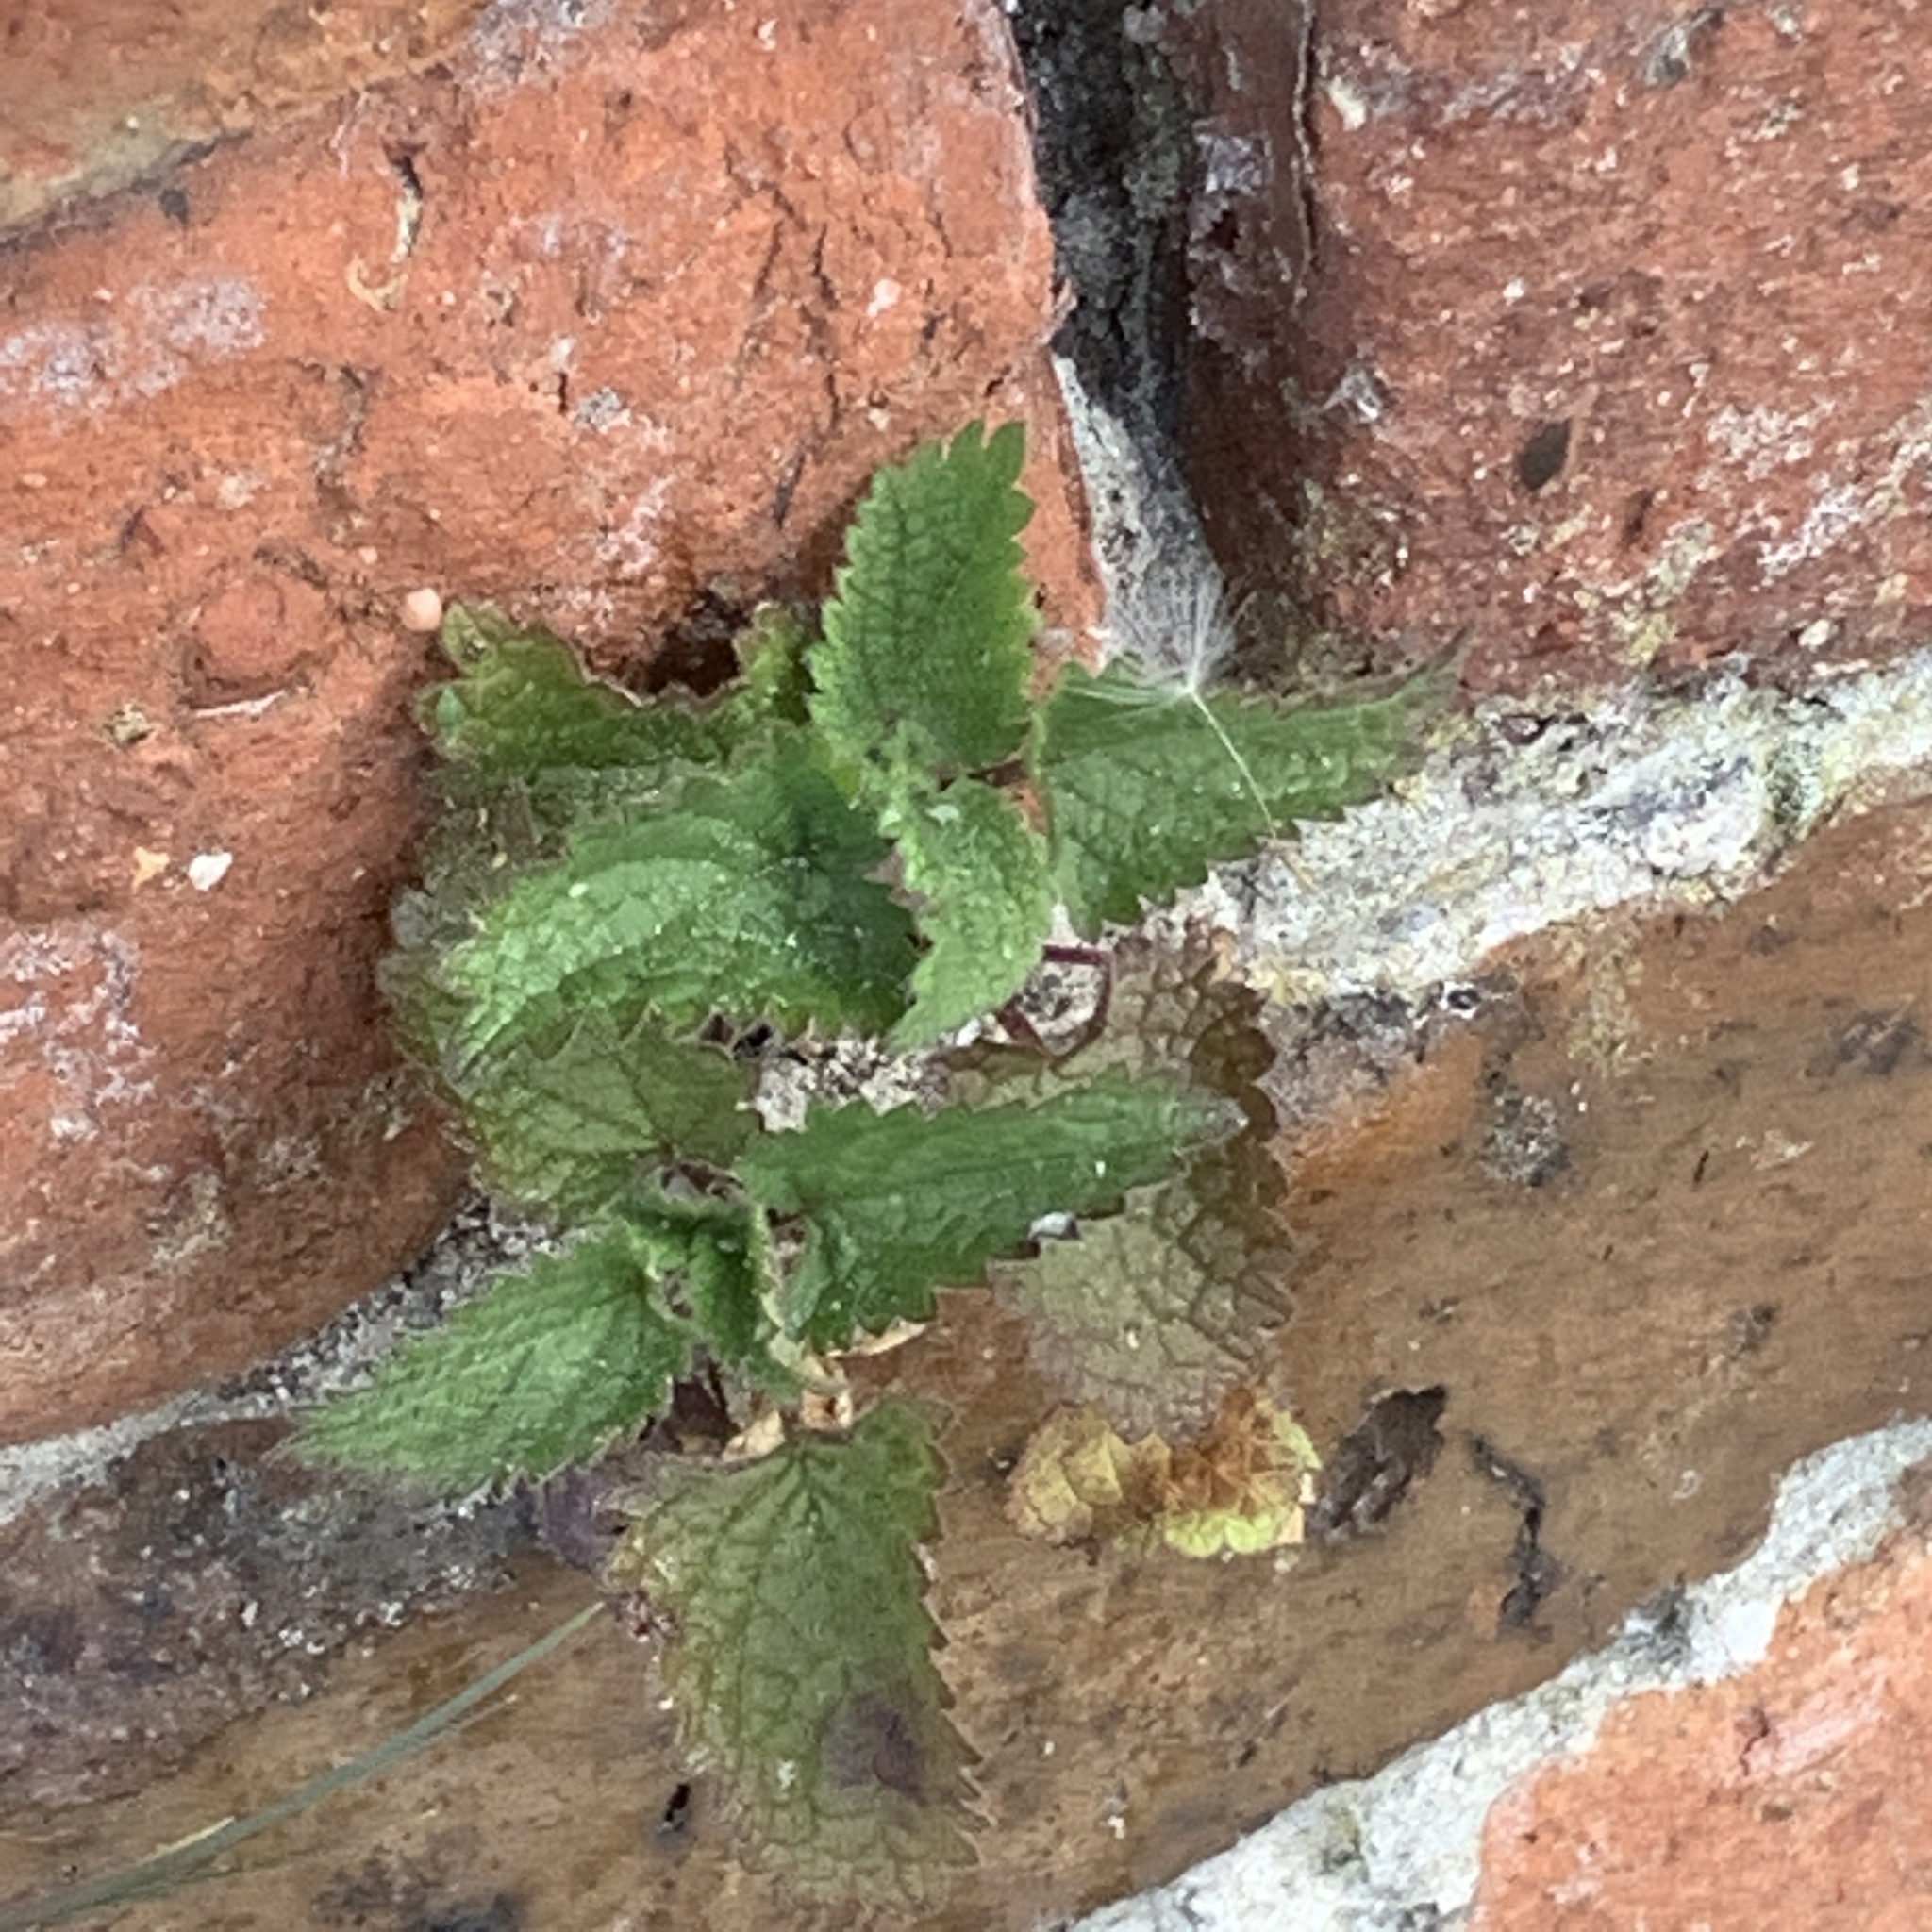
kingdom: Plantae
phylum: Tracheophyta
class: Magnoliopsida
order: Rosales
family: Urticaceae
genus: Urtica
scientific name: Urtica dioica
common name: Common nettle
